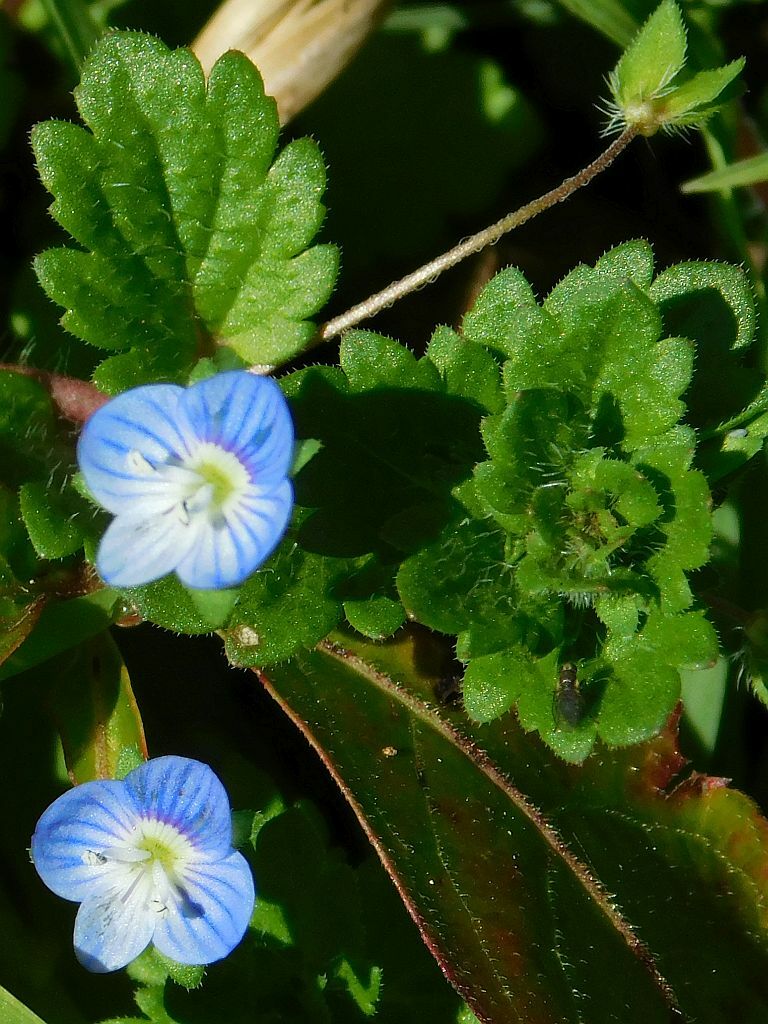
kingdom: Plantae
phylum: Tracheophyta
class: Magnoliopsida
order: Lamiales
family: Plantaginaceae
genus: Veronica
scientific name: Veronica persica
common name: Common field-speedwell
